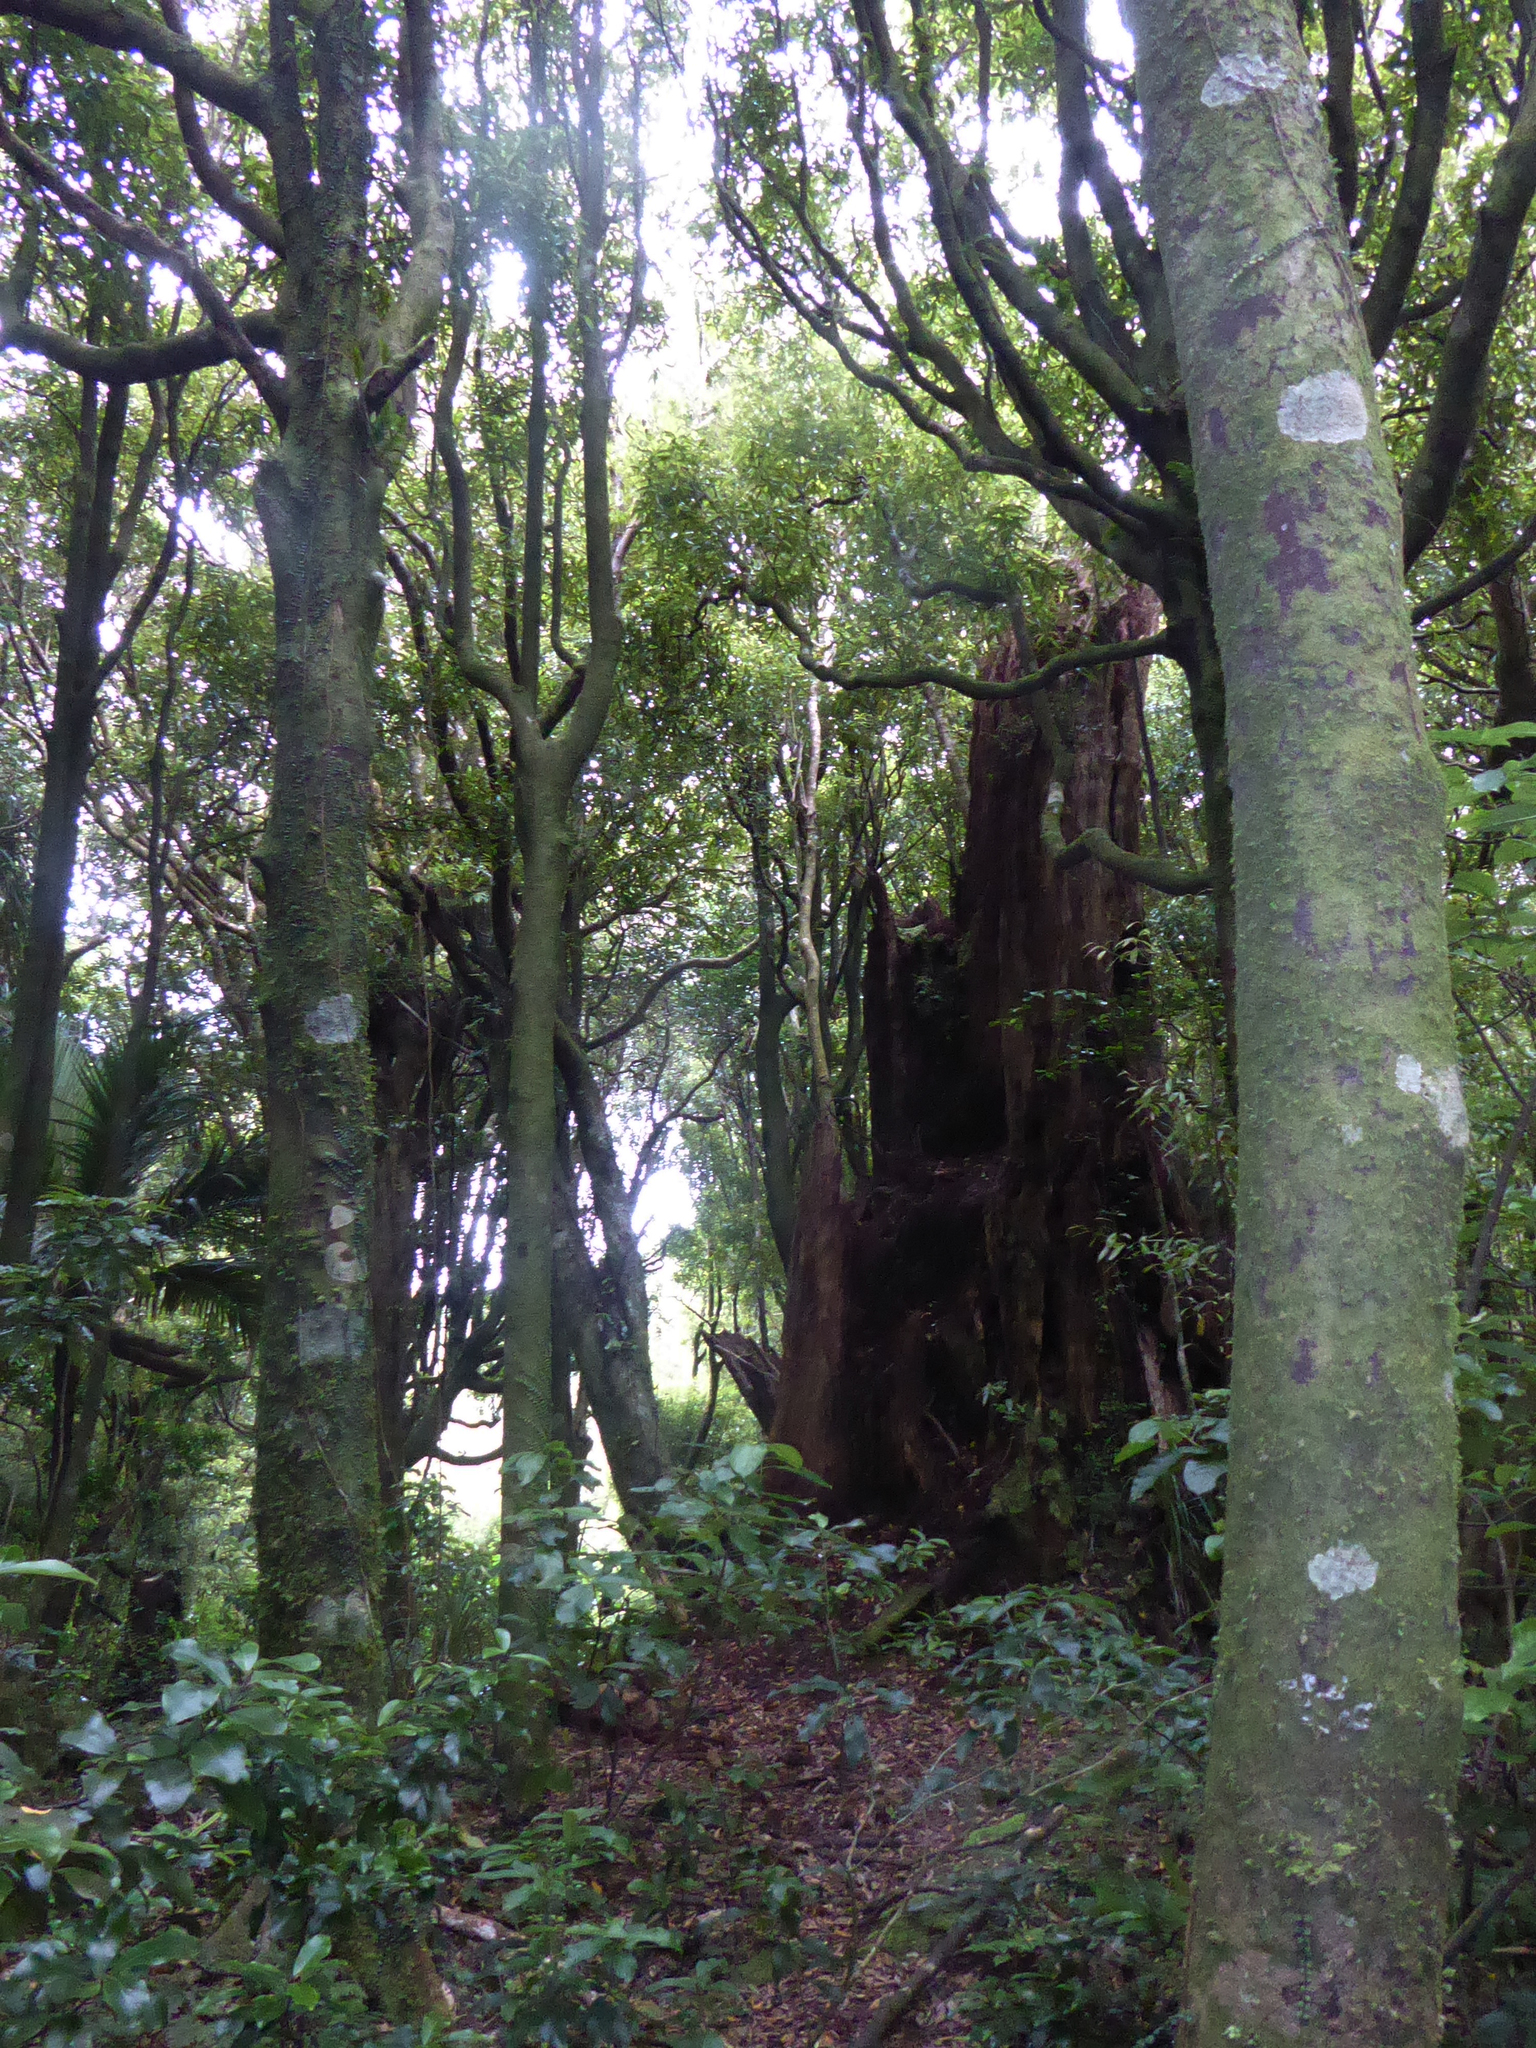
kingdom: Plantae
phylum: Tracheophyta
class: Magnoliopsida
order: Laurales
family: Lauraceae
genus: Beilschmiedia
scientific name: Beilschmiedia tawa
